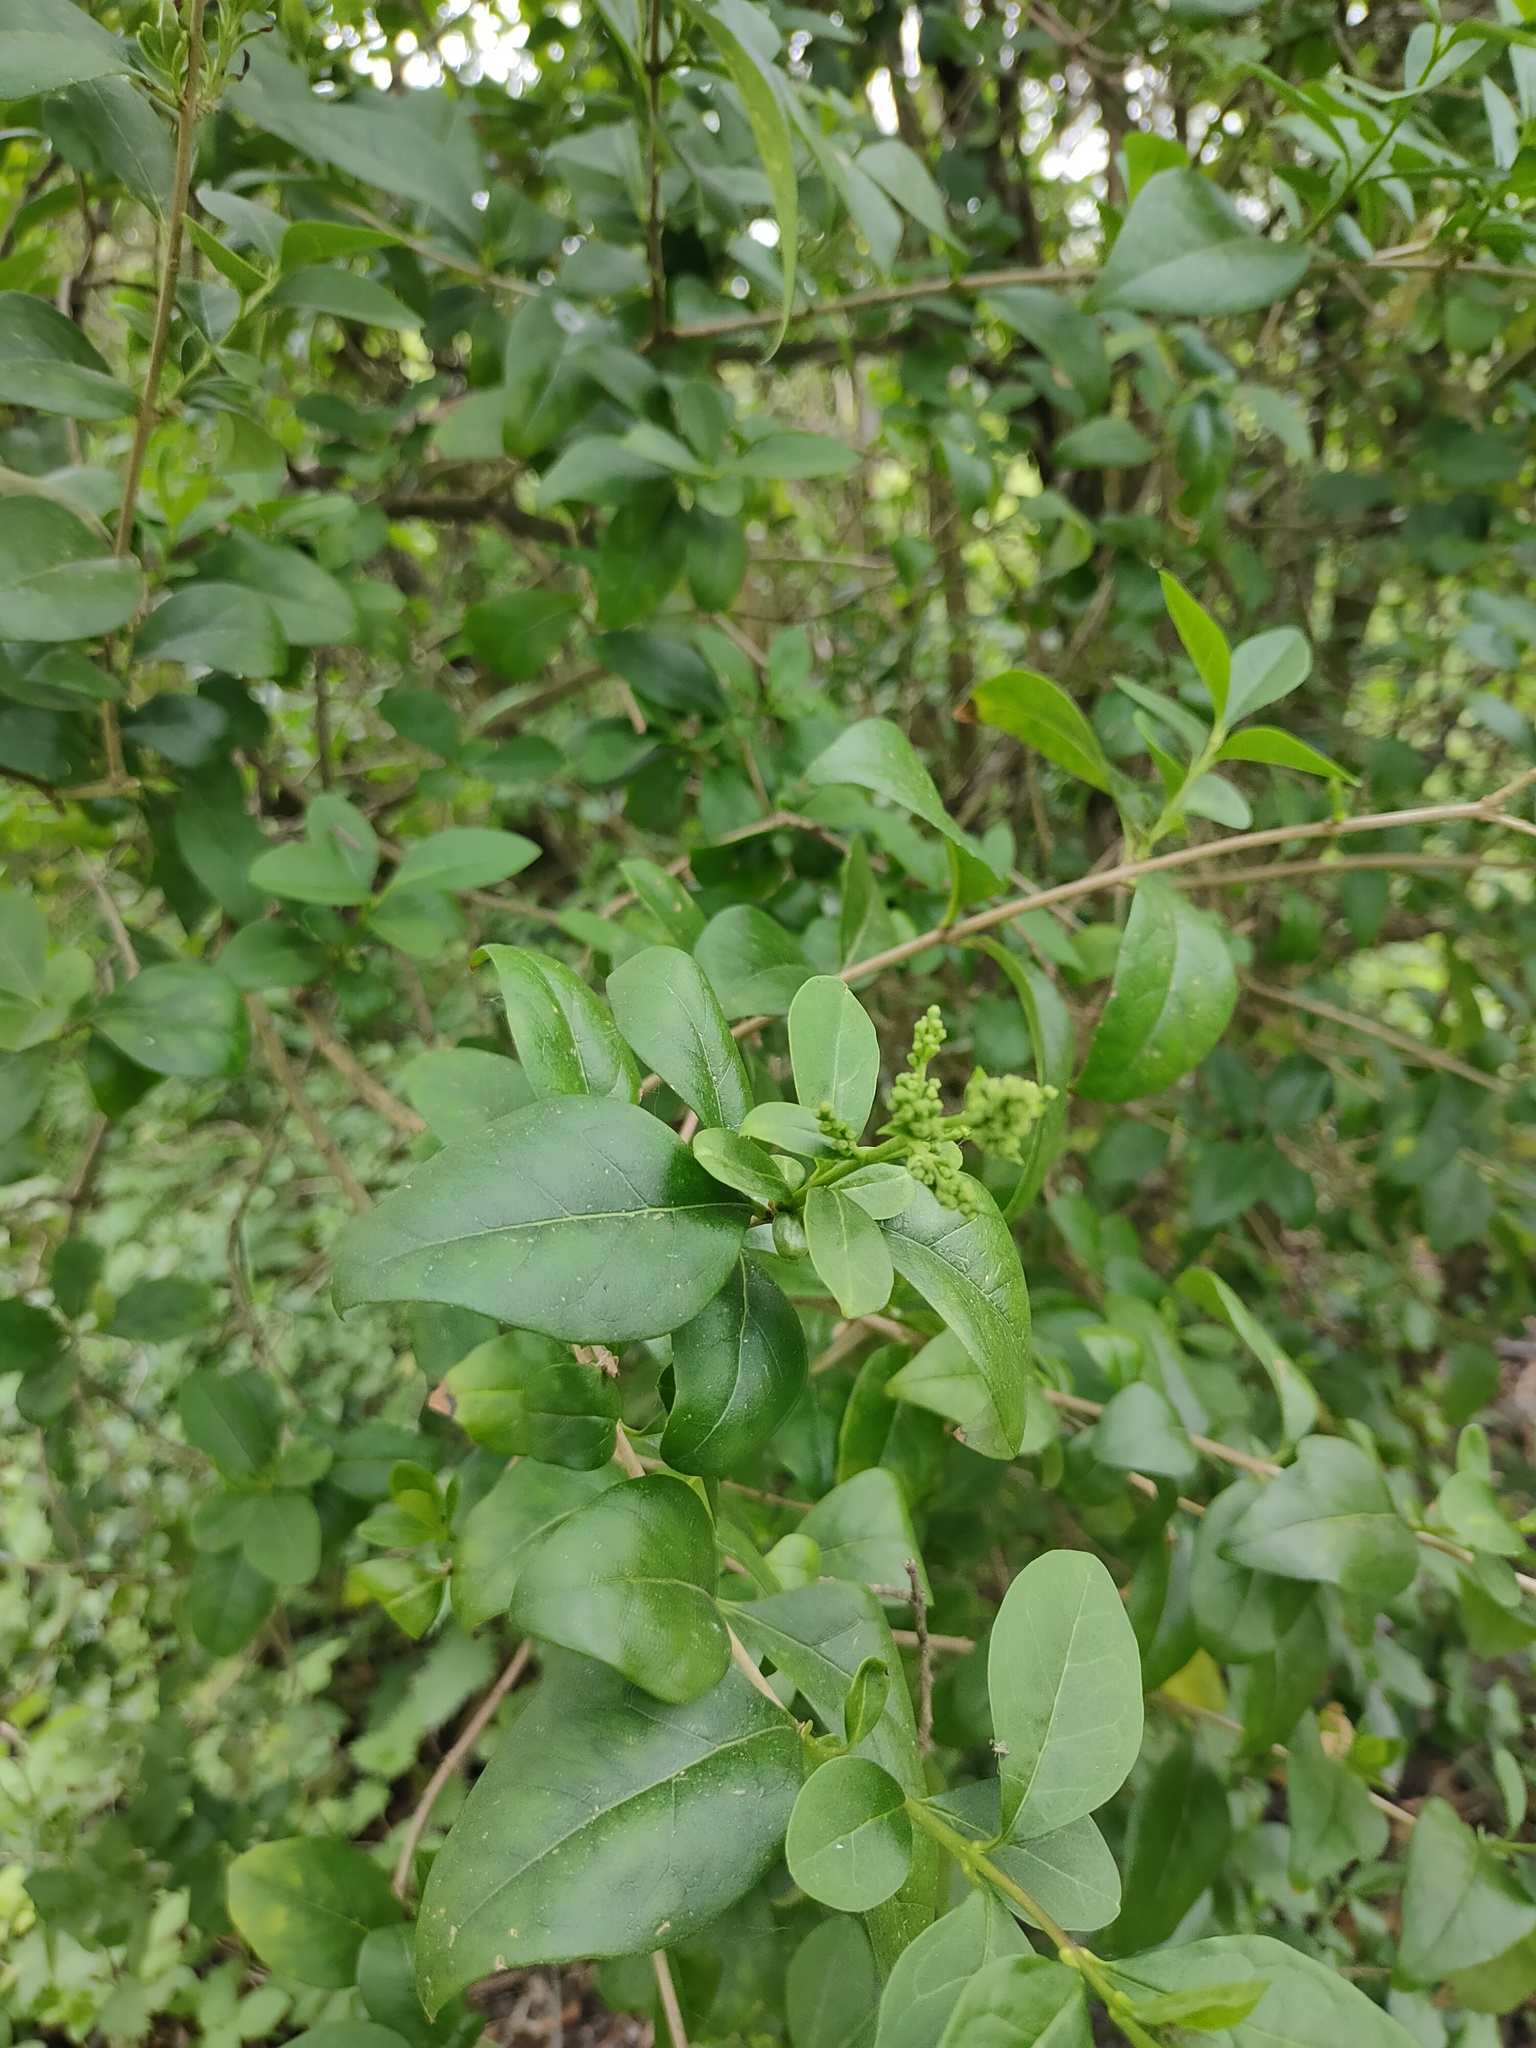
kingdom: Plantae
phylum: Tracheophyta
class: Magnoliopsida
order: Lamiales
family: Oleaceae
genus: Ligustrum
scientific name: Ligustrum ovalifolium
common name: California privet
